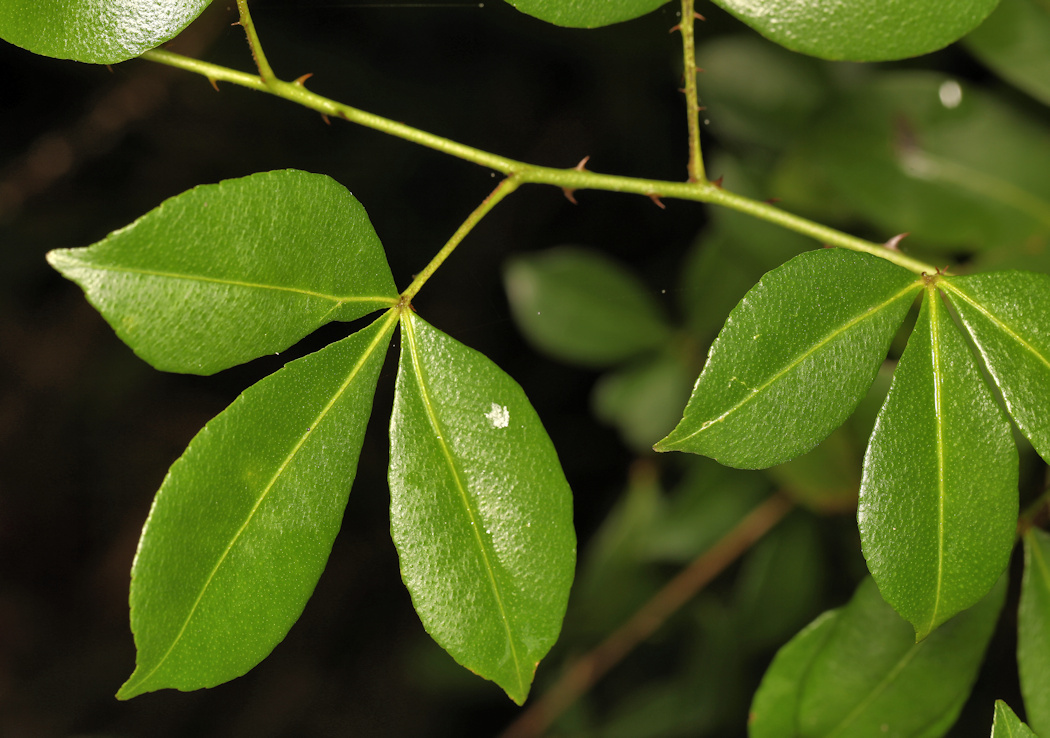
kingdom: Plantae
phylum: Tracheophyta
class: Magnoliopsida
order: Sapindales
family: Rutaceae
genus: Zanthoxylum
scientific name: Zanthoxylum asiaticum
